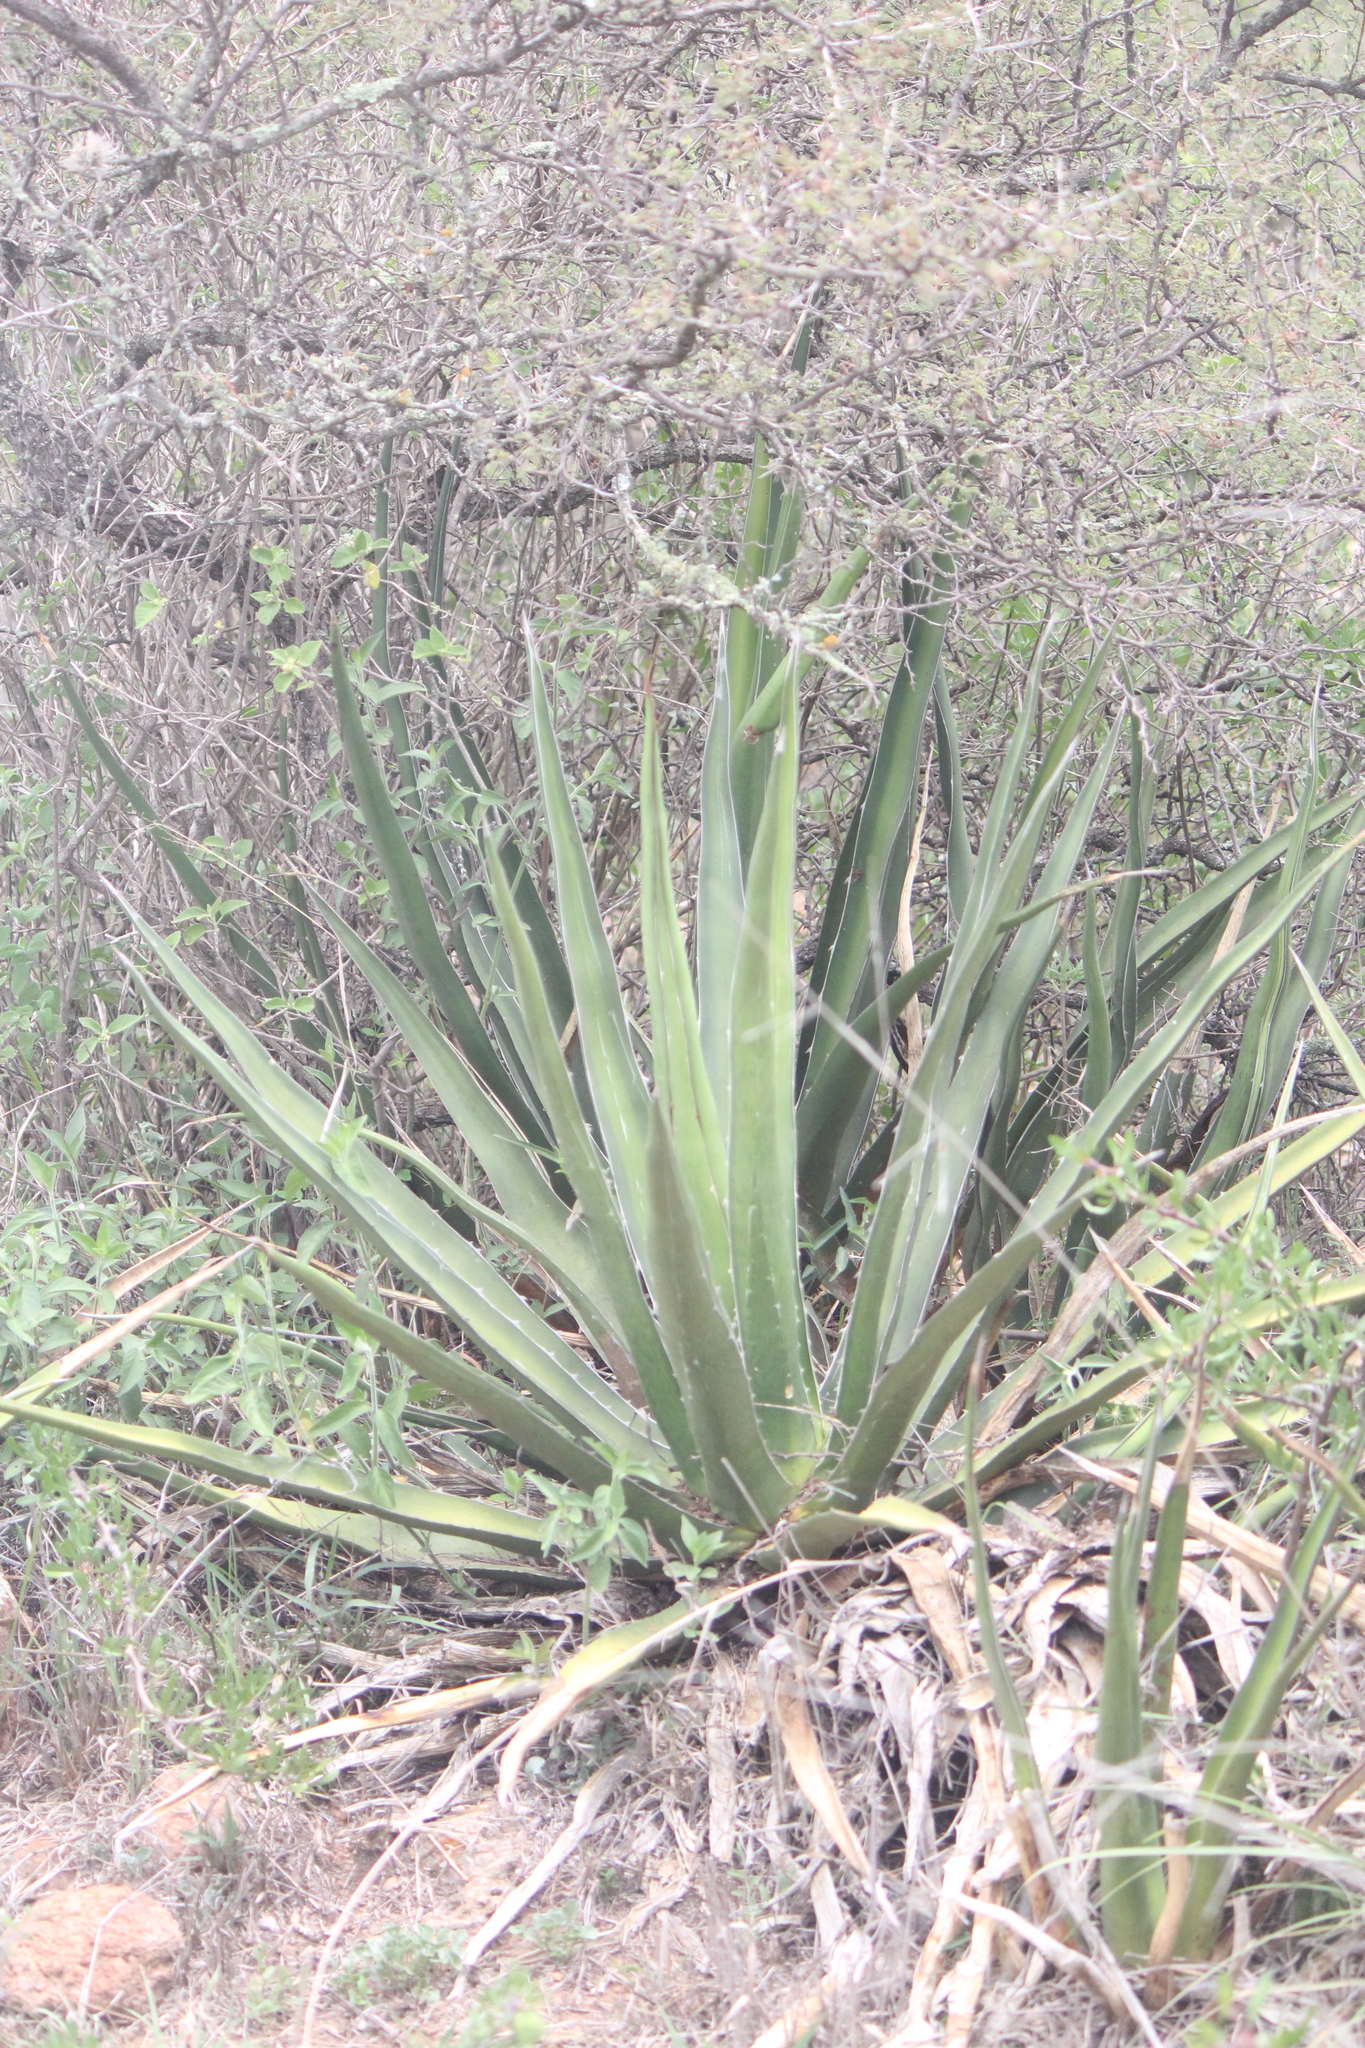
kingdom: Plantae
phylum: Tracheophyta
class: Liliopsida
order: Asparagales
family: Asparagaceae
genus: Agave
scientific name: Agave difformis
